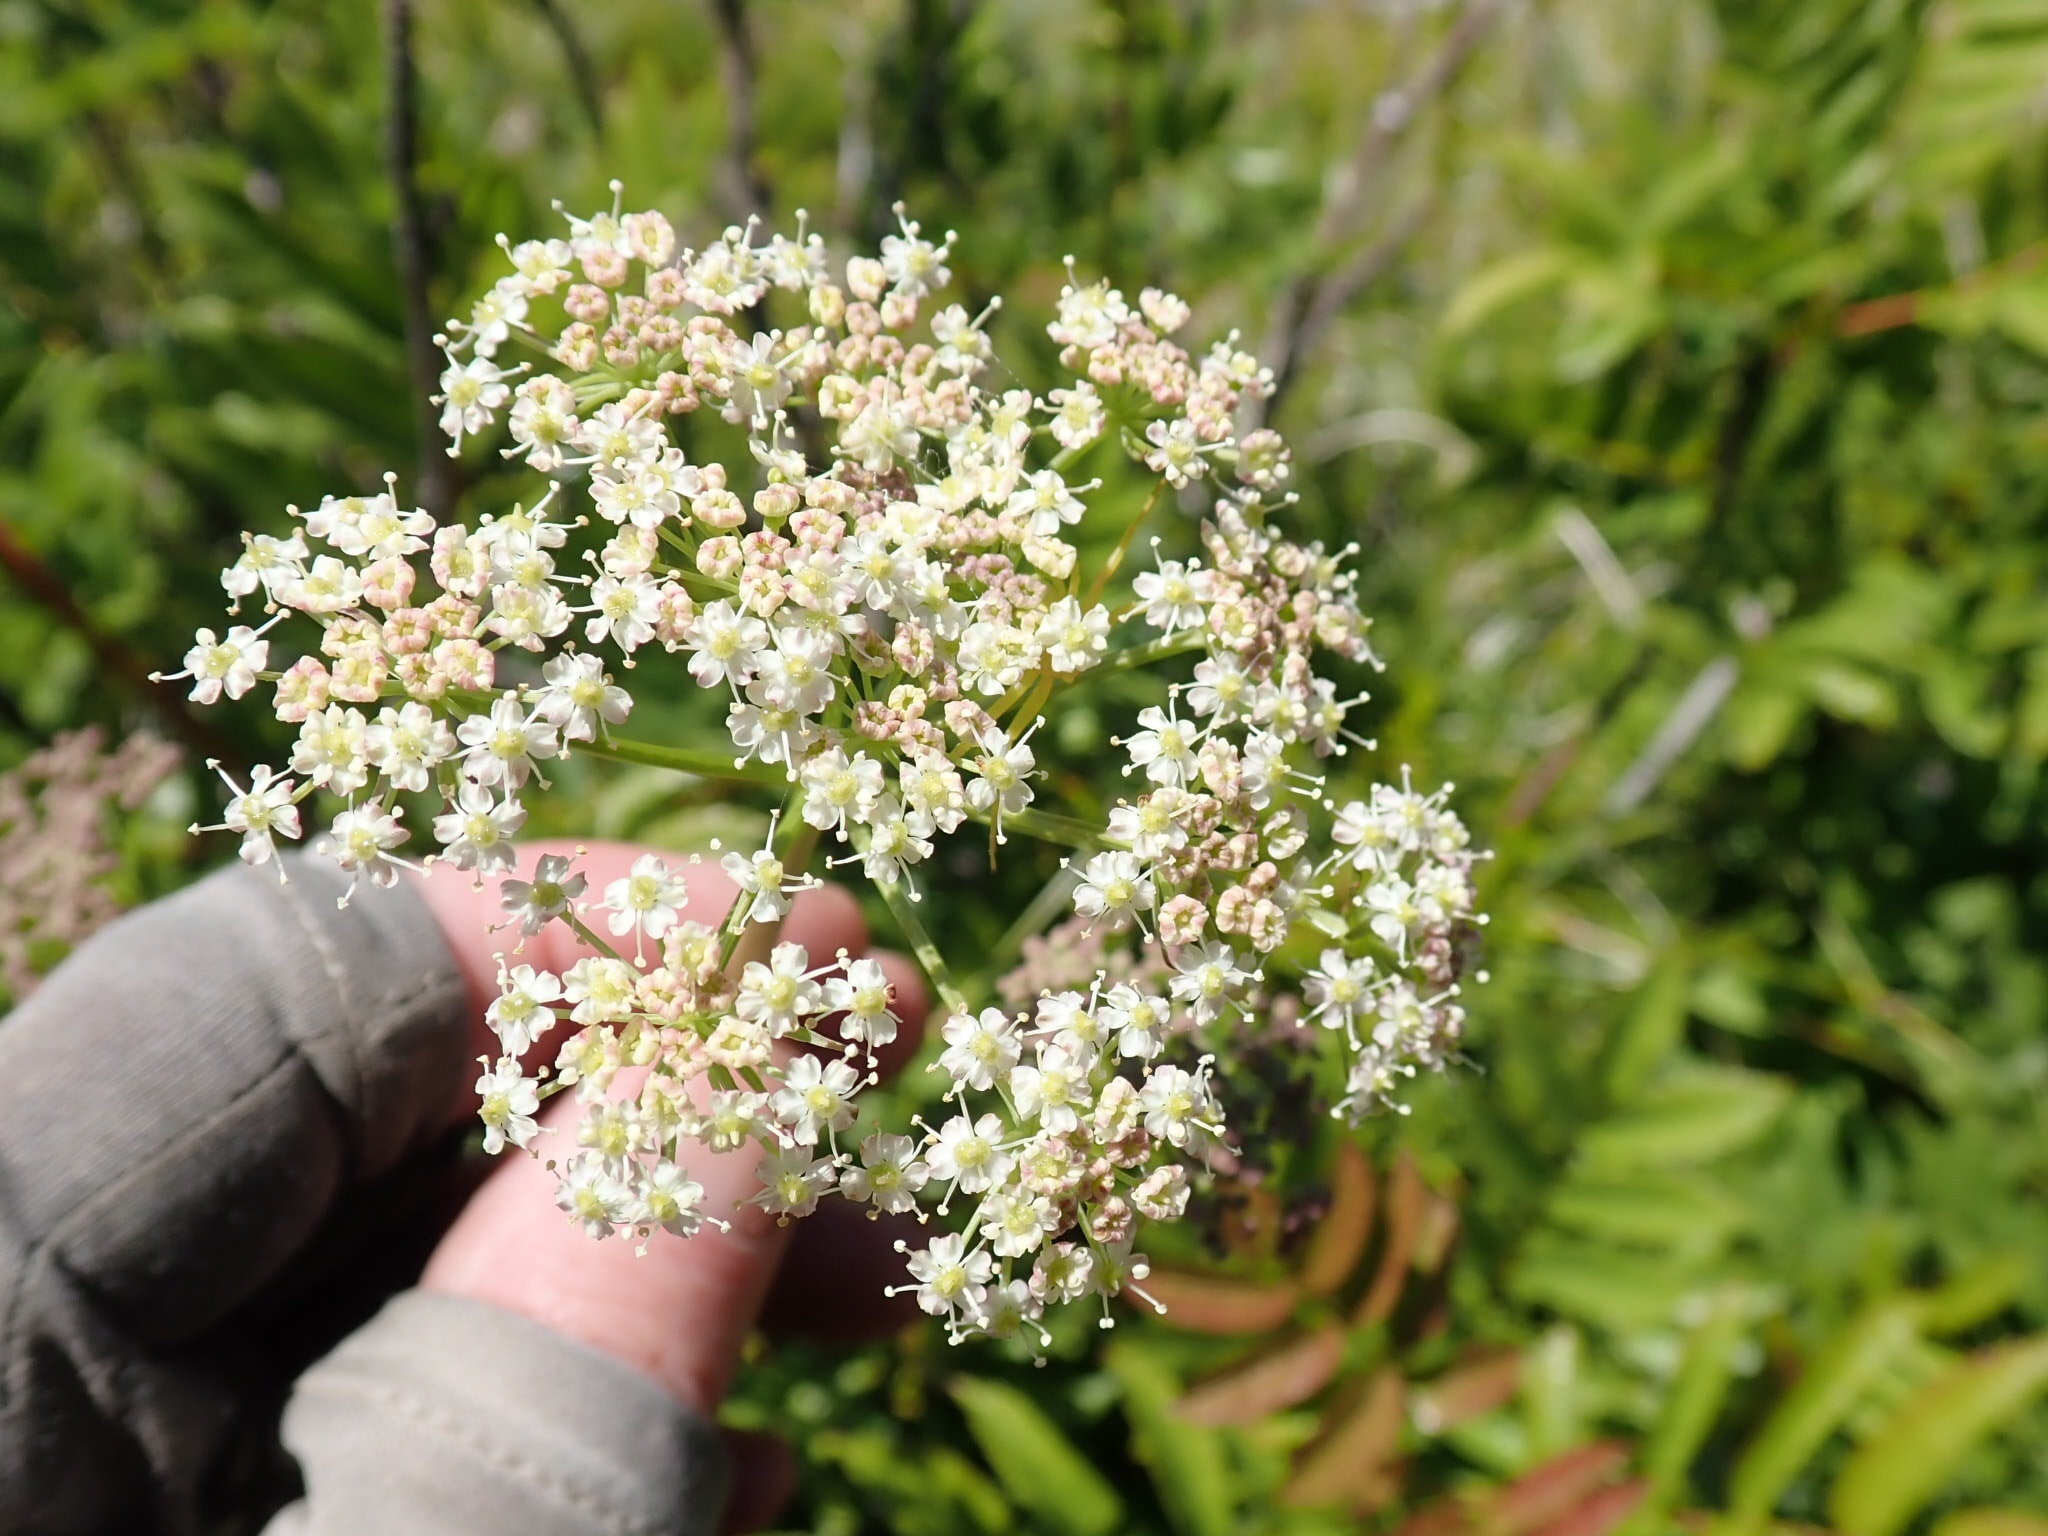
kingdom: Animalia
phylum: Arthropoda
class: Arachnida
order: Araneae
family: Thomisidae
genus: Misumena
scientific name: Misumena vatia
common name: Goldenrod crab spider
